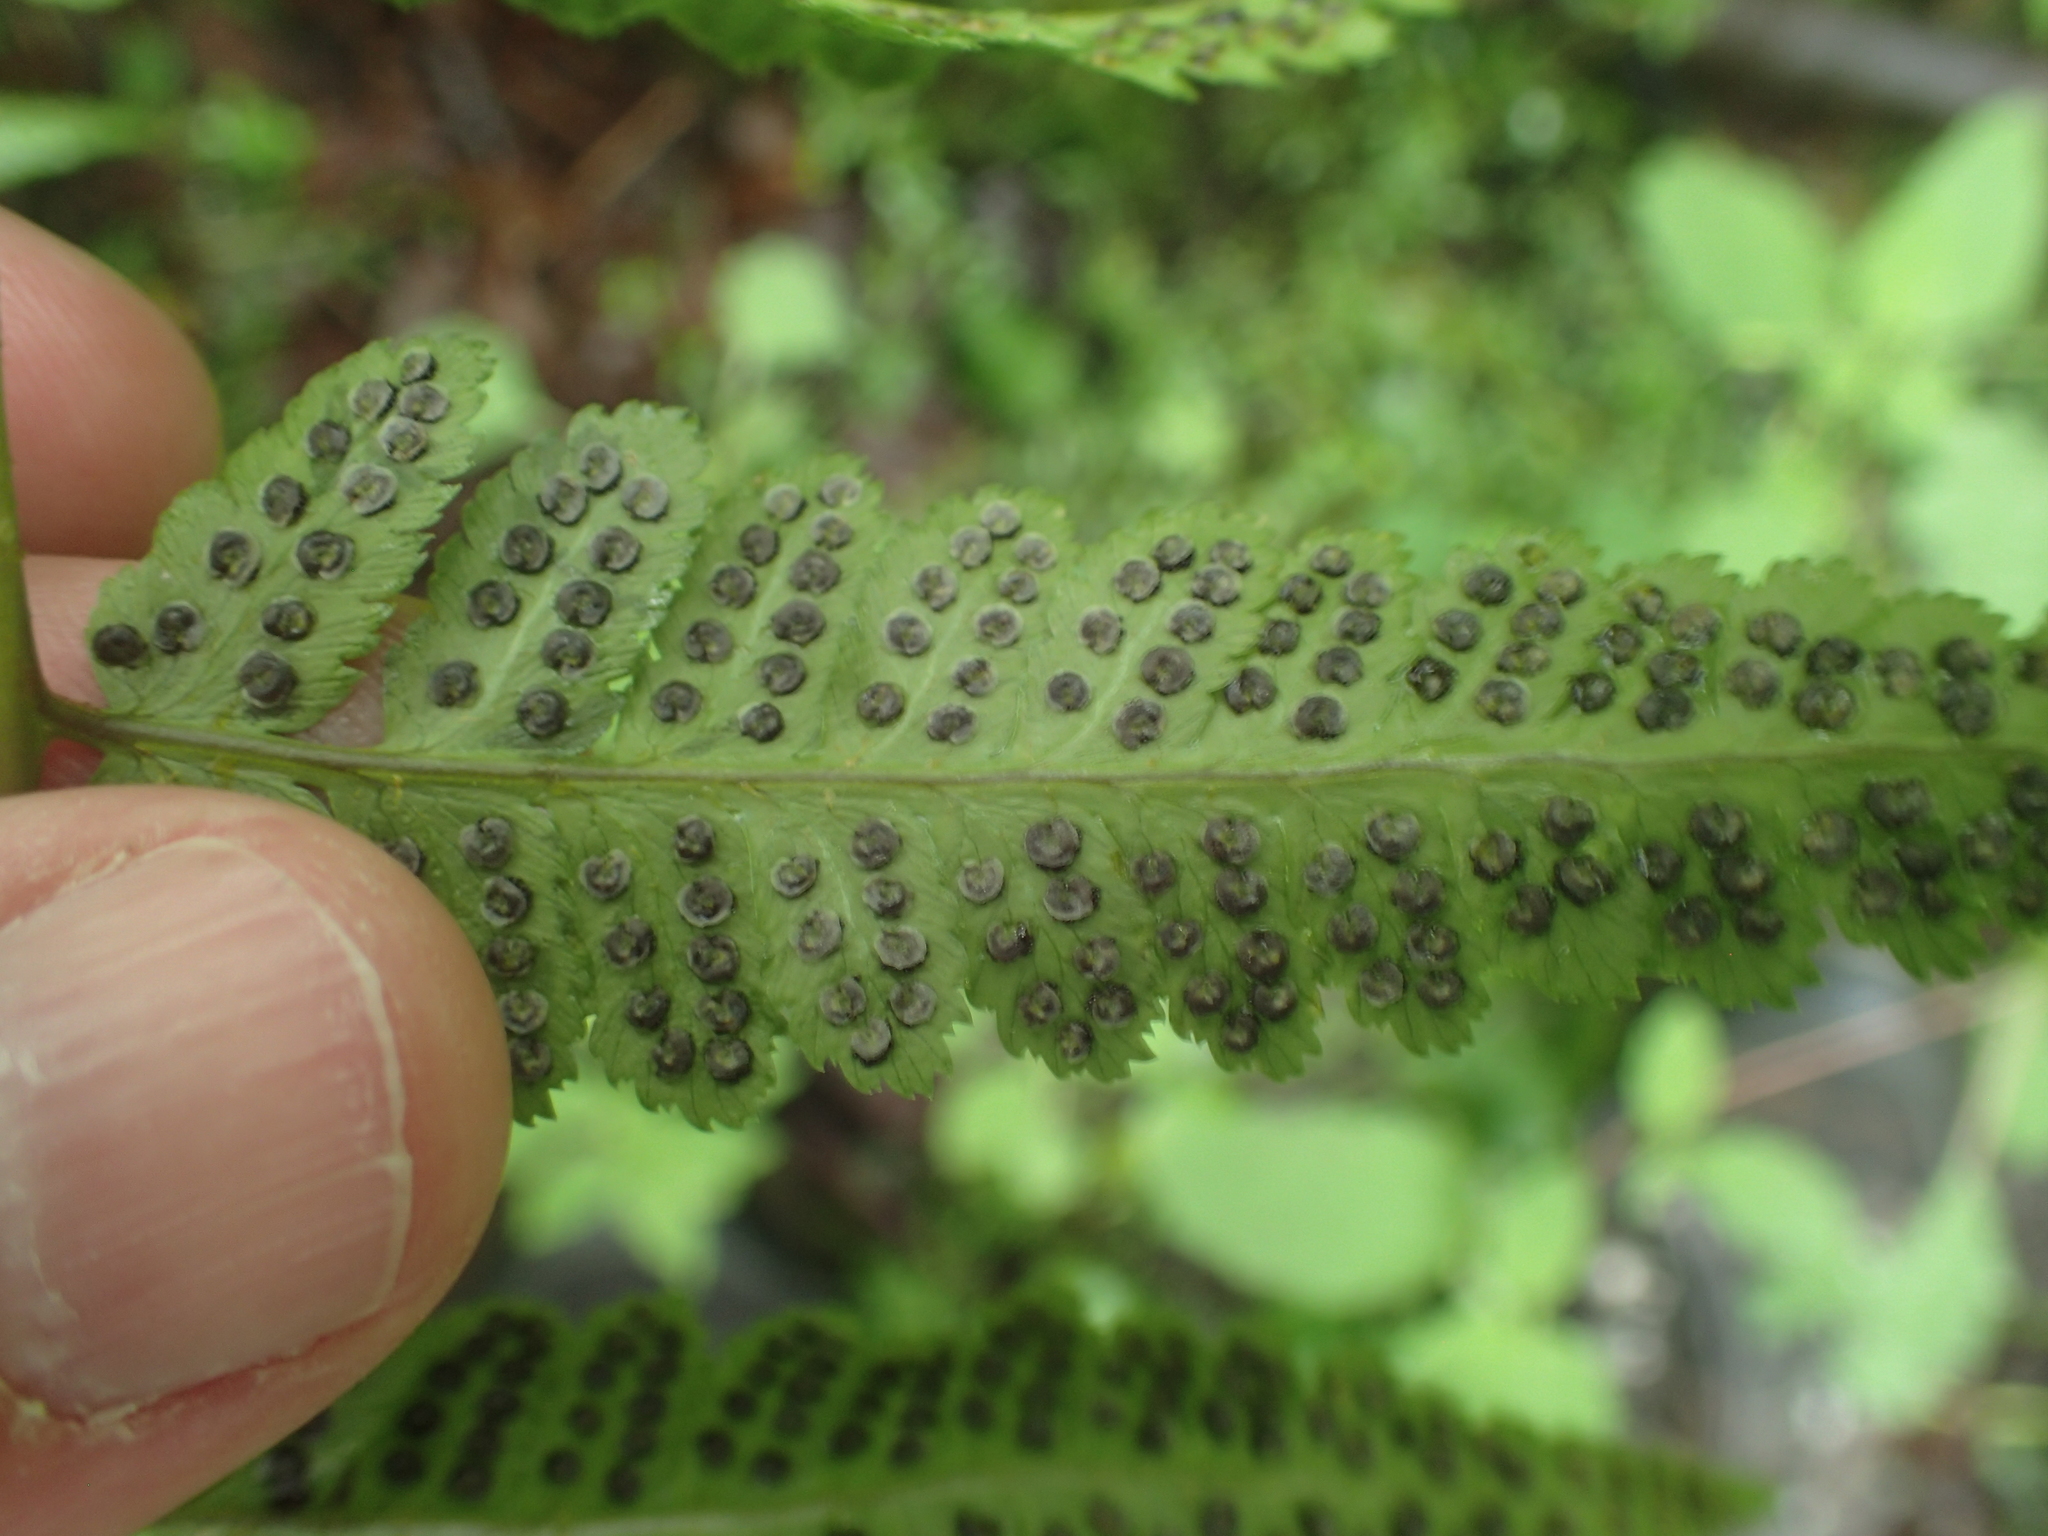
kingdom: Plantae
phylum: Tracheophyta
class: Polypodiopsida
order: Polypodiales
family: Dryopteridaceae
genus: Dryopteris
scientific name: Dryopteris cristata
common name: Crested wood fern
